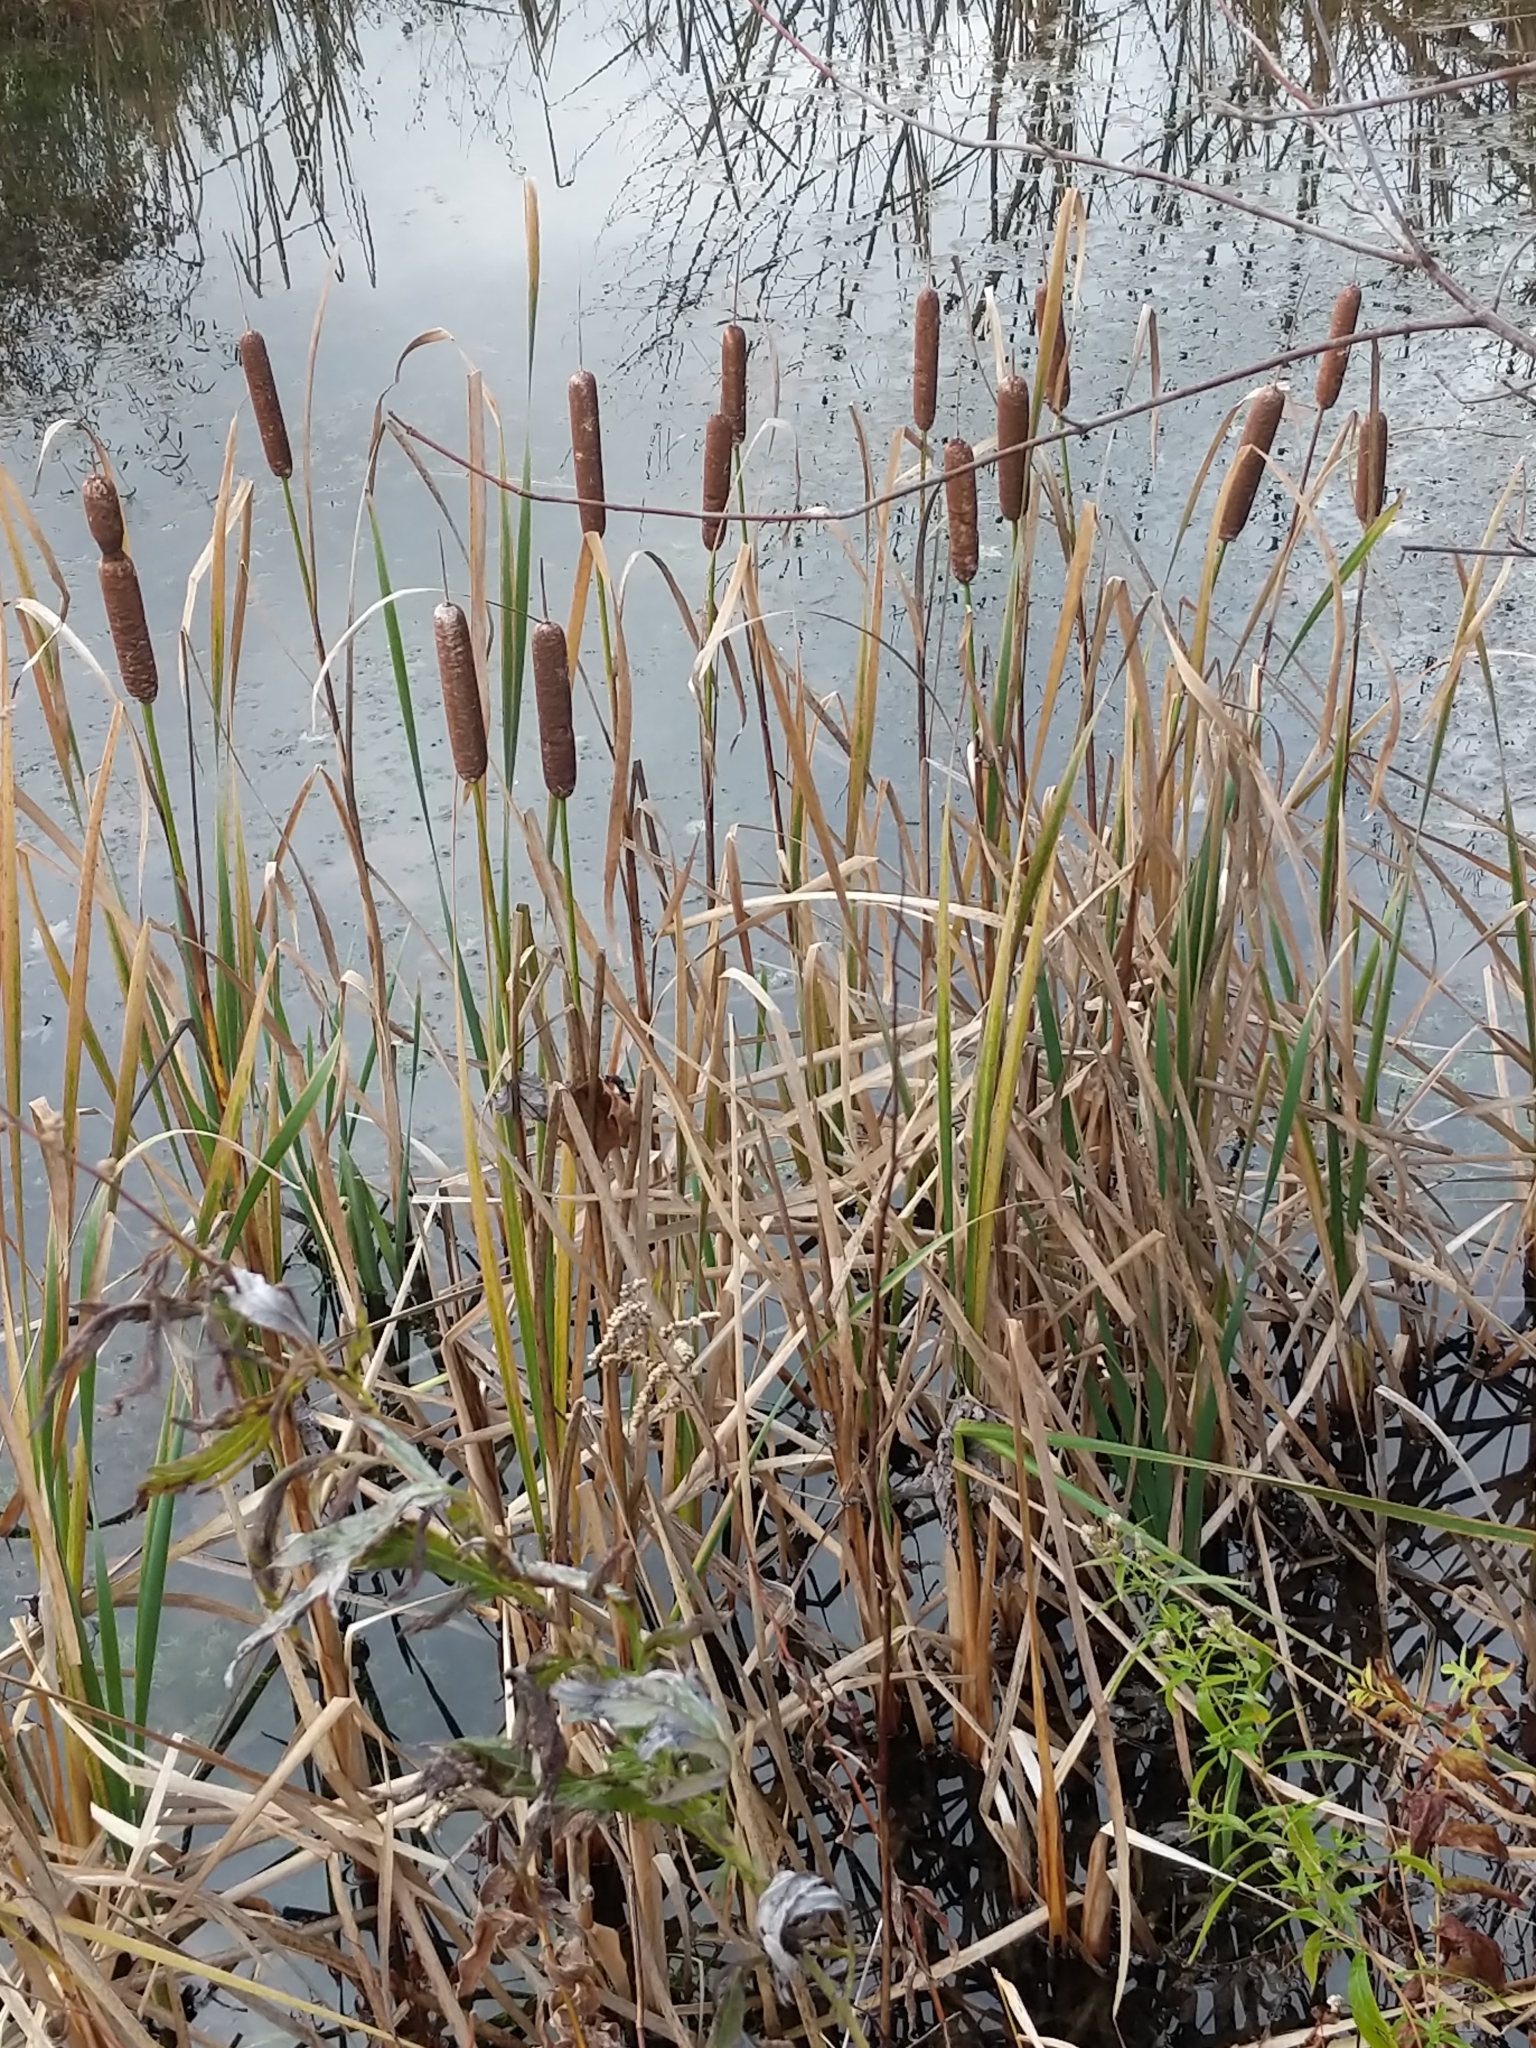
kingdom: Plantae
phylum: Tracheophyta
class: Liliopsida
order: Poales
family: Typhaceae
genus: Typha
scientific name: Typha latifolia
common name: Broadleaf cattail
